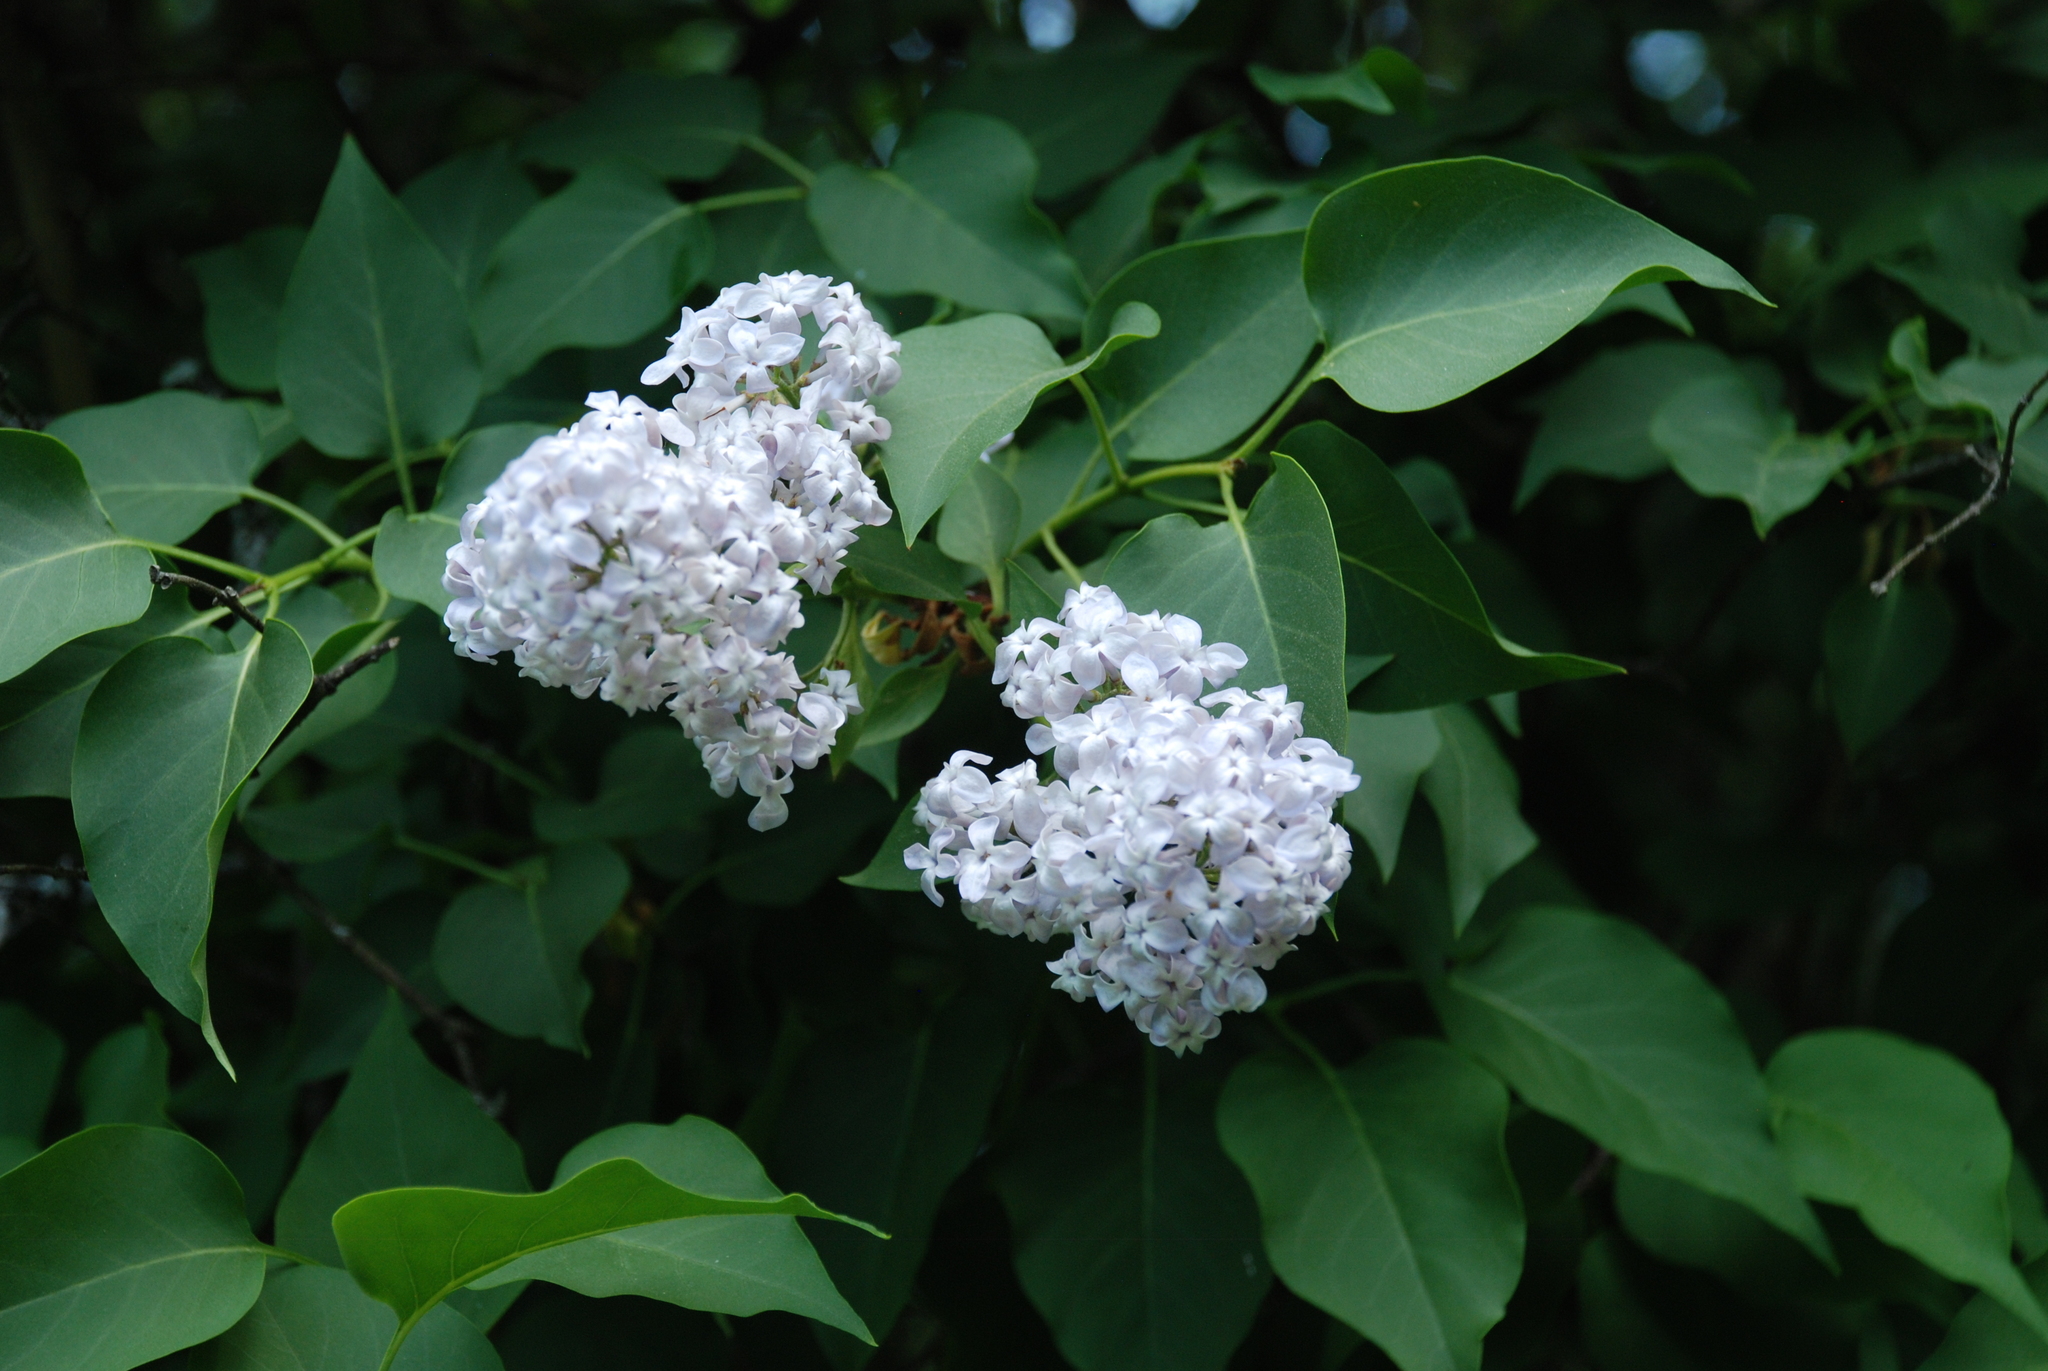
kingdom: Plantae
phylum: Tracheophyta
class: Magnoliopsida
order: Lamiales
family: Oleaceae
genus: Syringa
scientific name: Syringa vulgaris
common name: Common lilac
